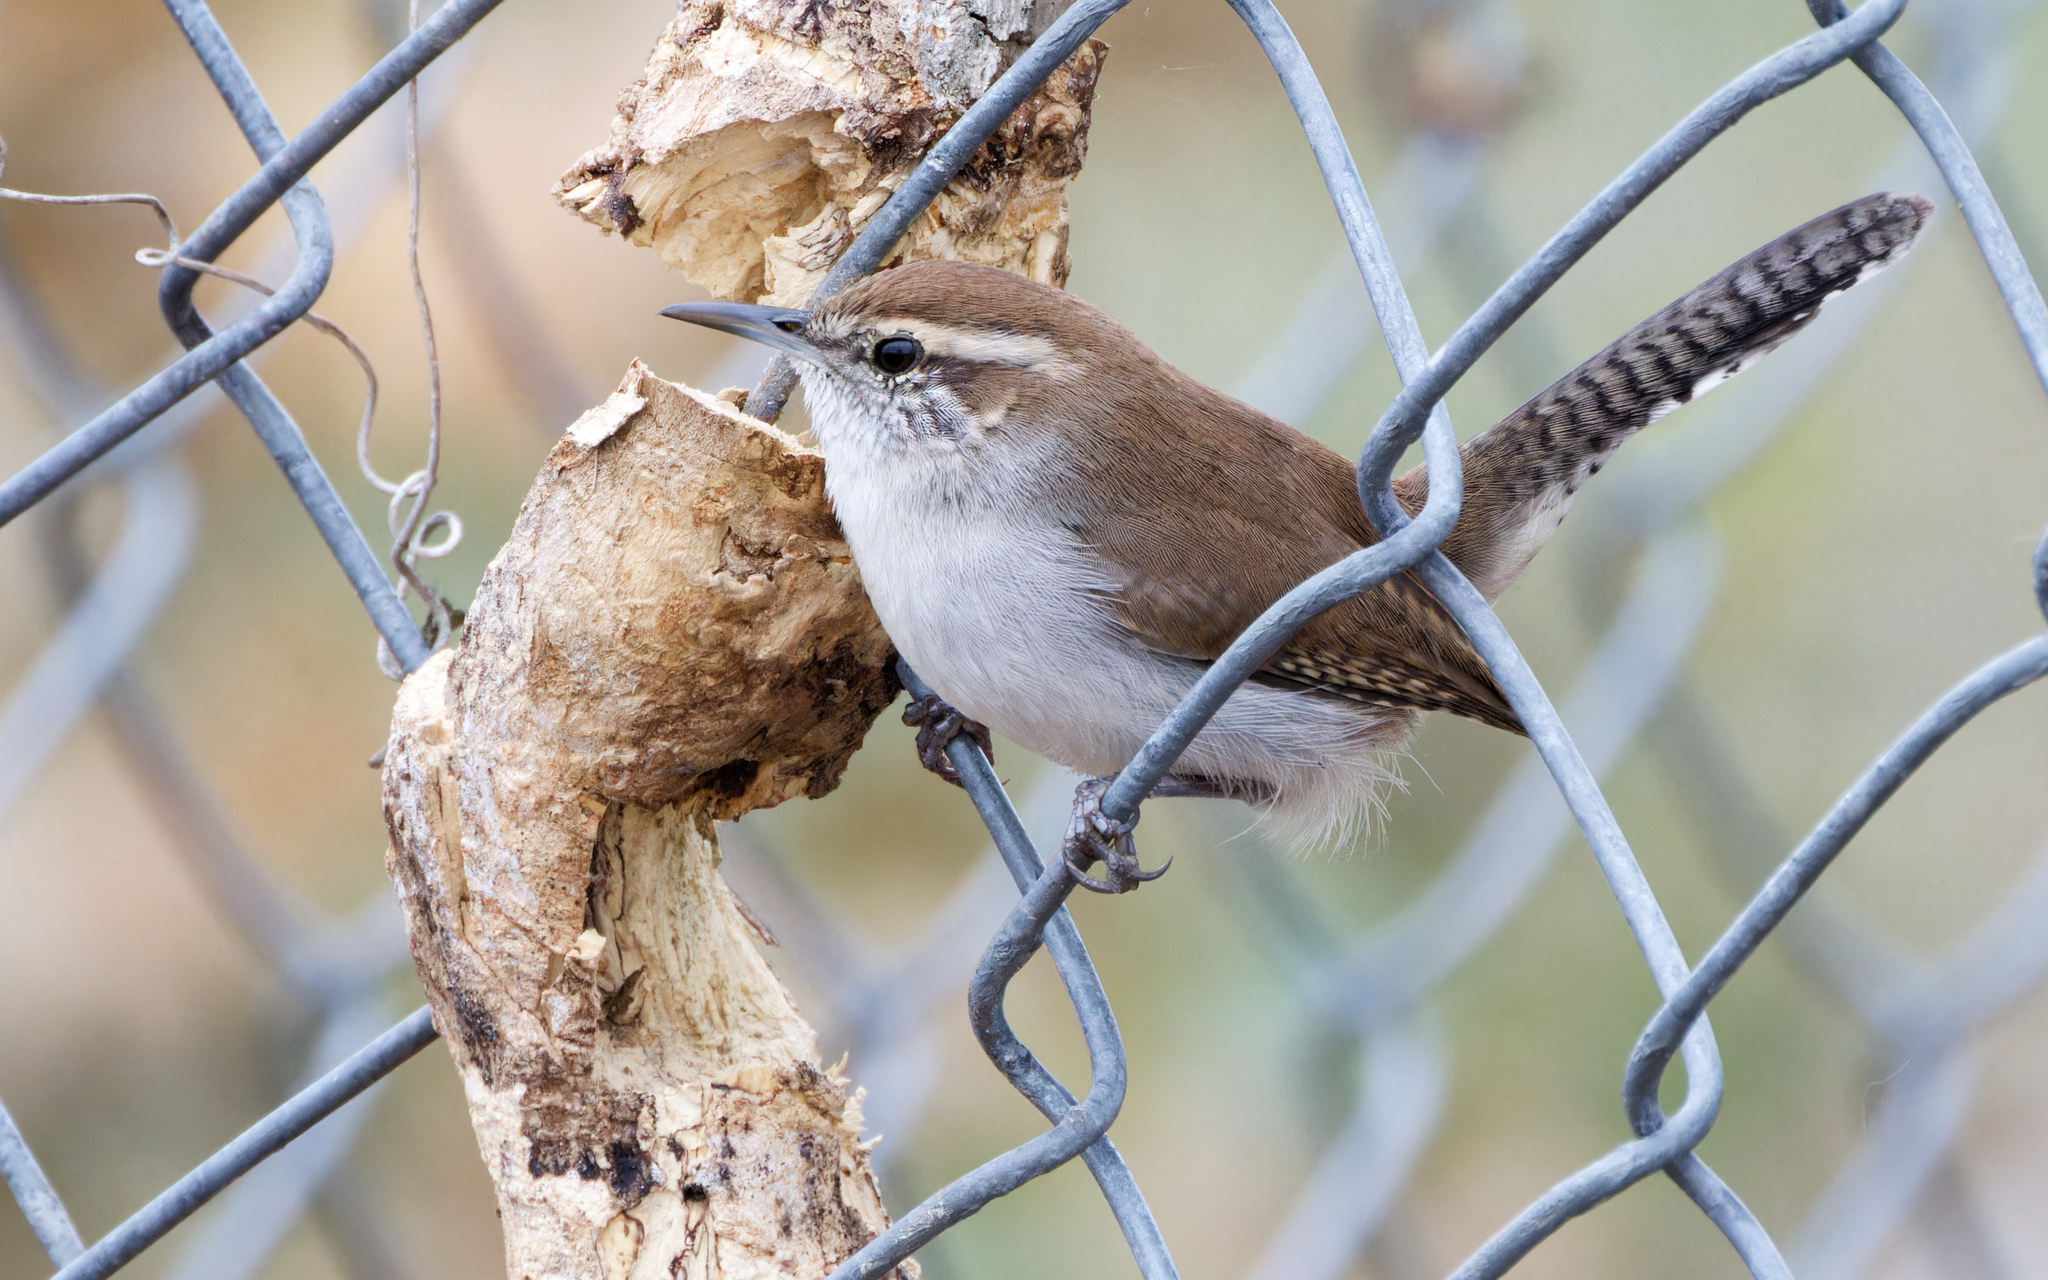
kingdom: Animalia
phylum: Chordata
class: Aves
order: Passeriformes
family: Troglodytidae
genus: Thryomanes
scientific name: Thryomanes bewickii
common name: Bewick's wren
